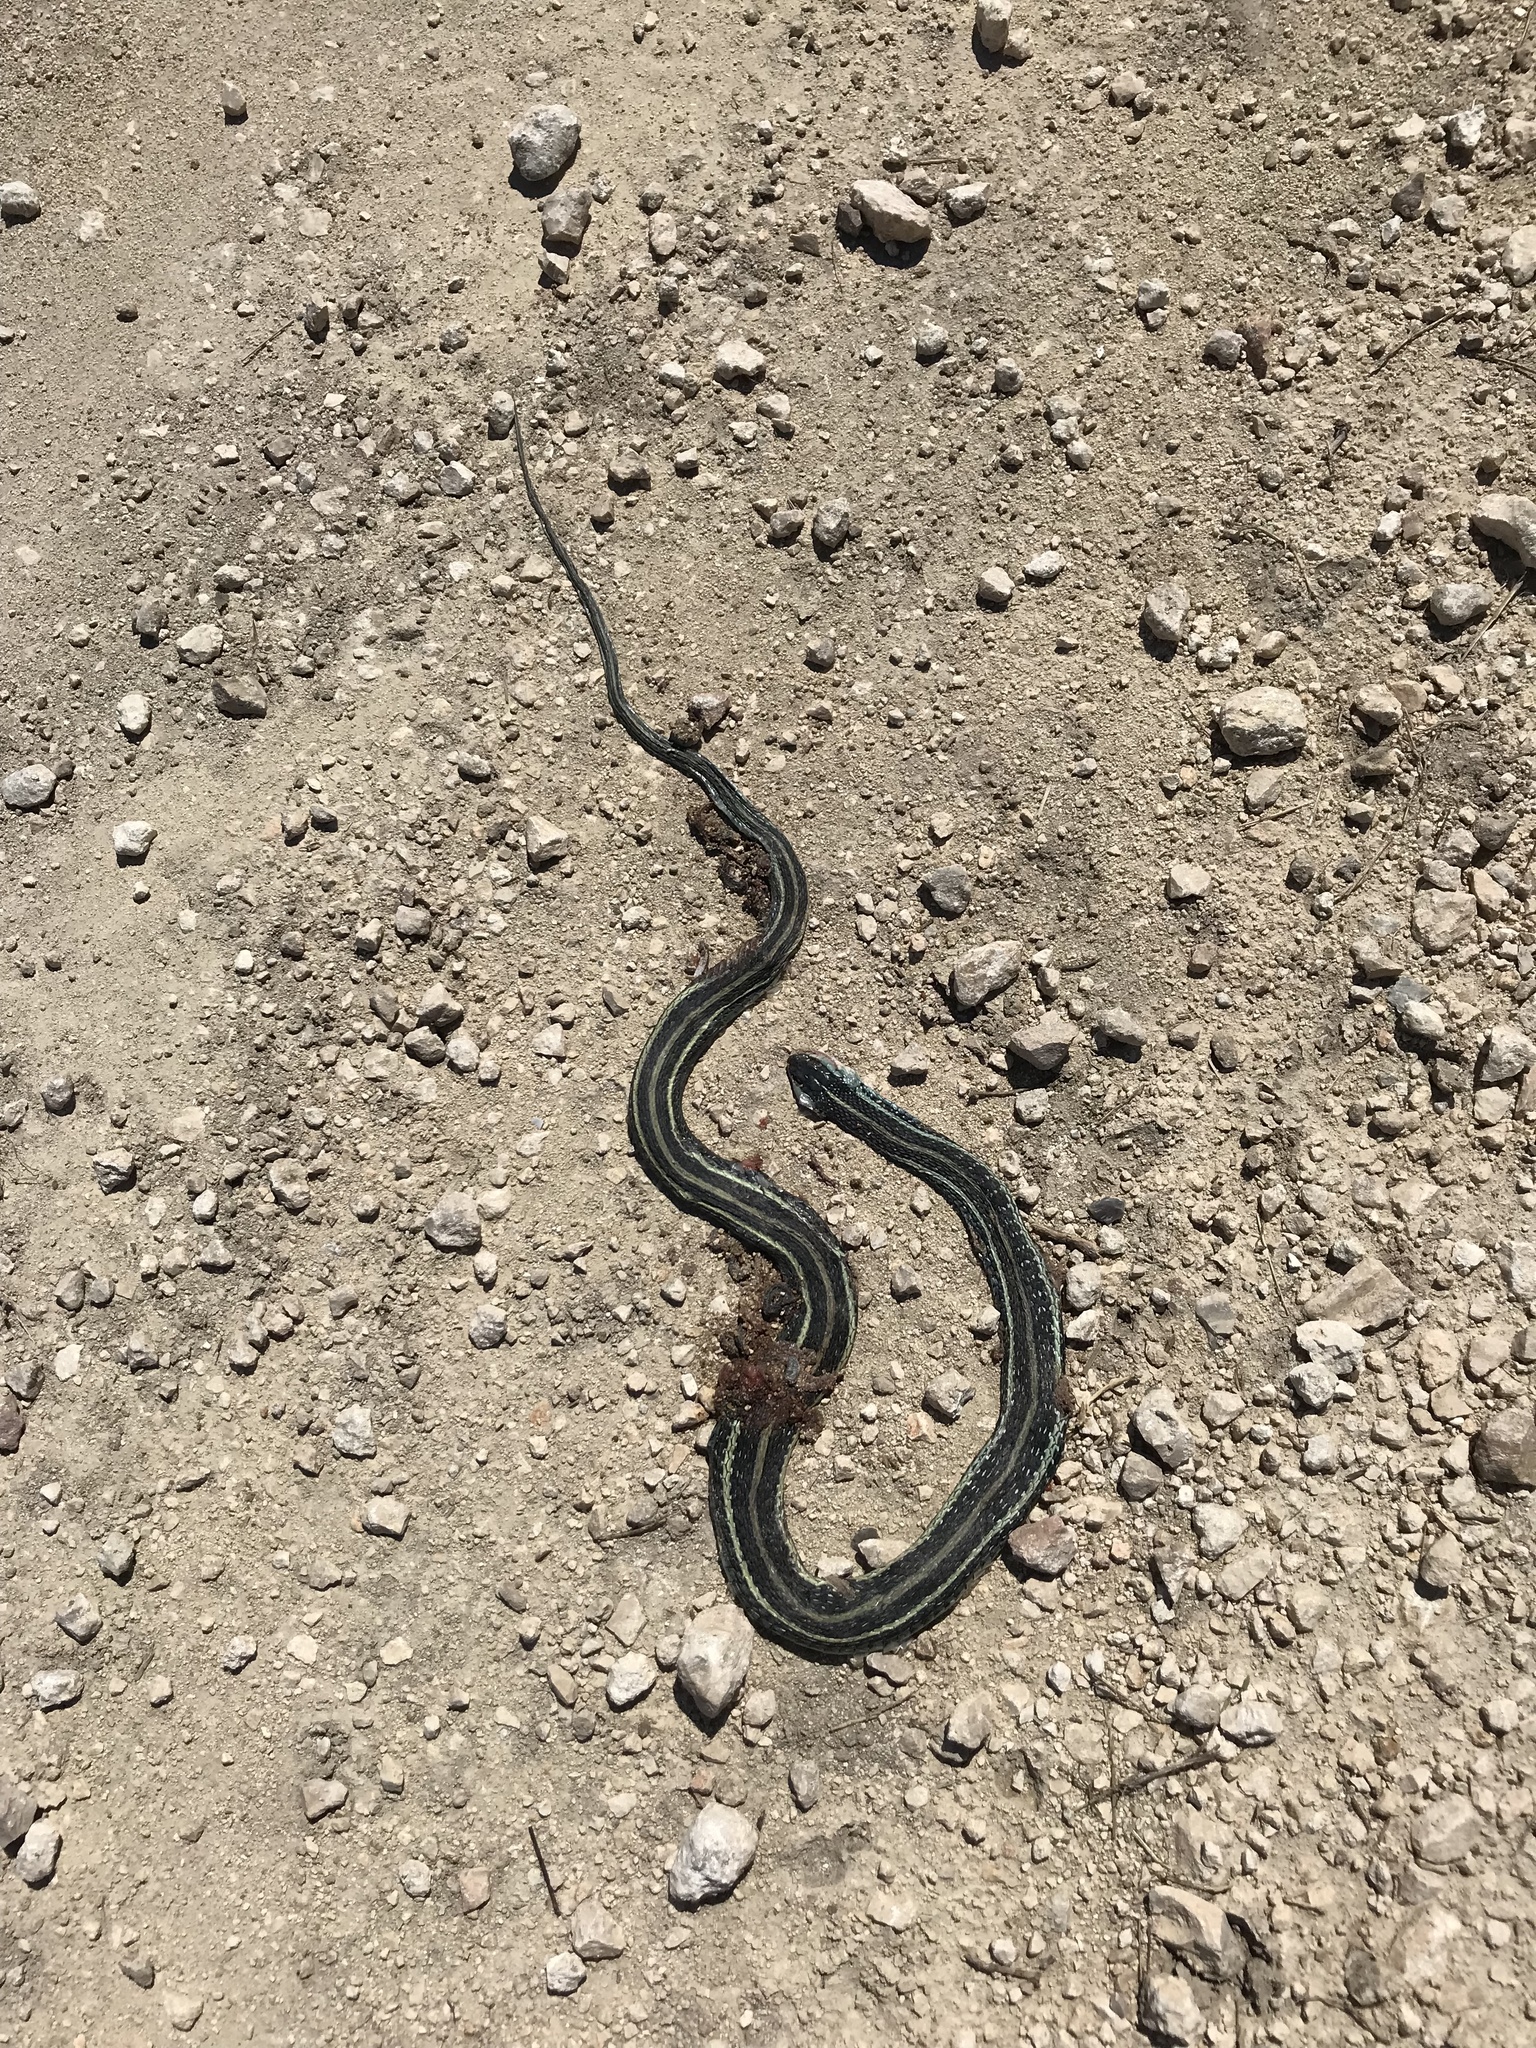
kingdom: Animalia
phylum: Chordata
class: Squamata
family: Colubridae
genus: Thamnophis
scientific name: Thamnophis proximus
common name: Western ribbon snake
